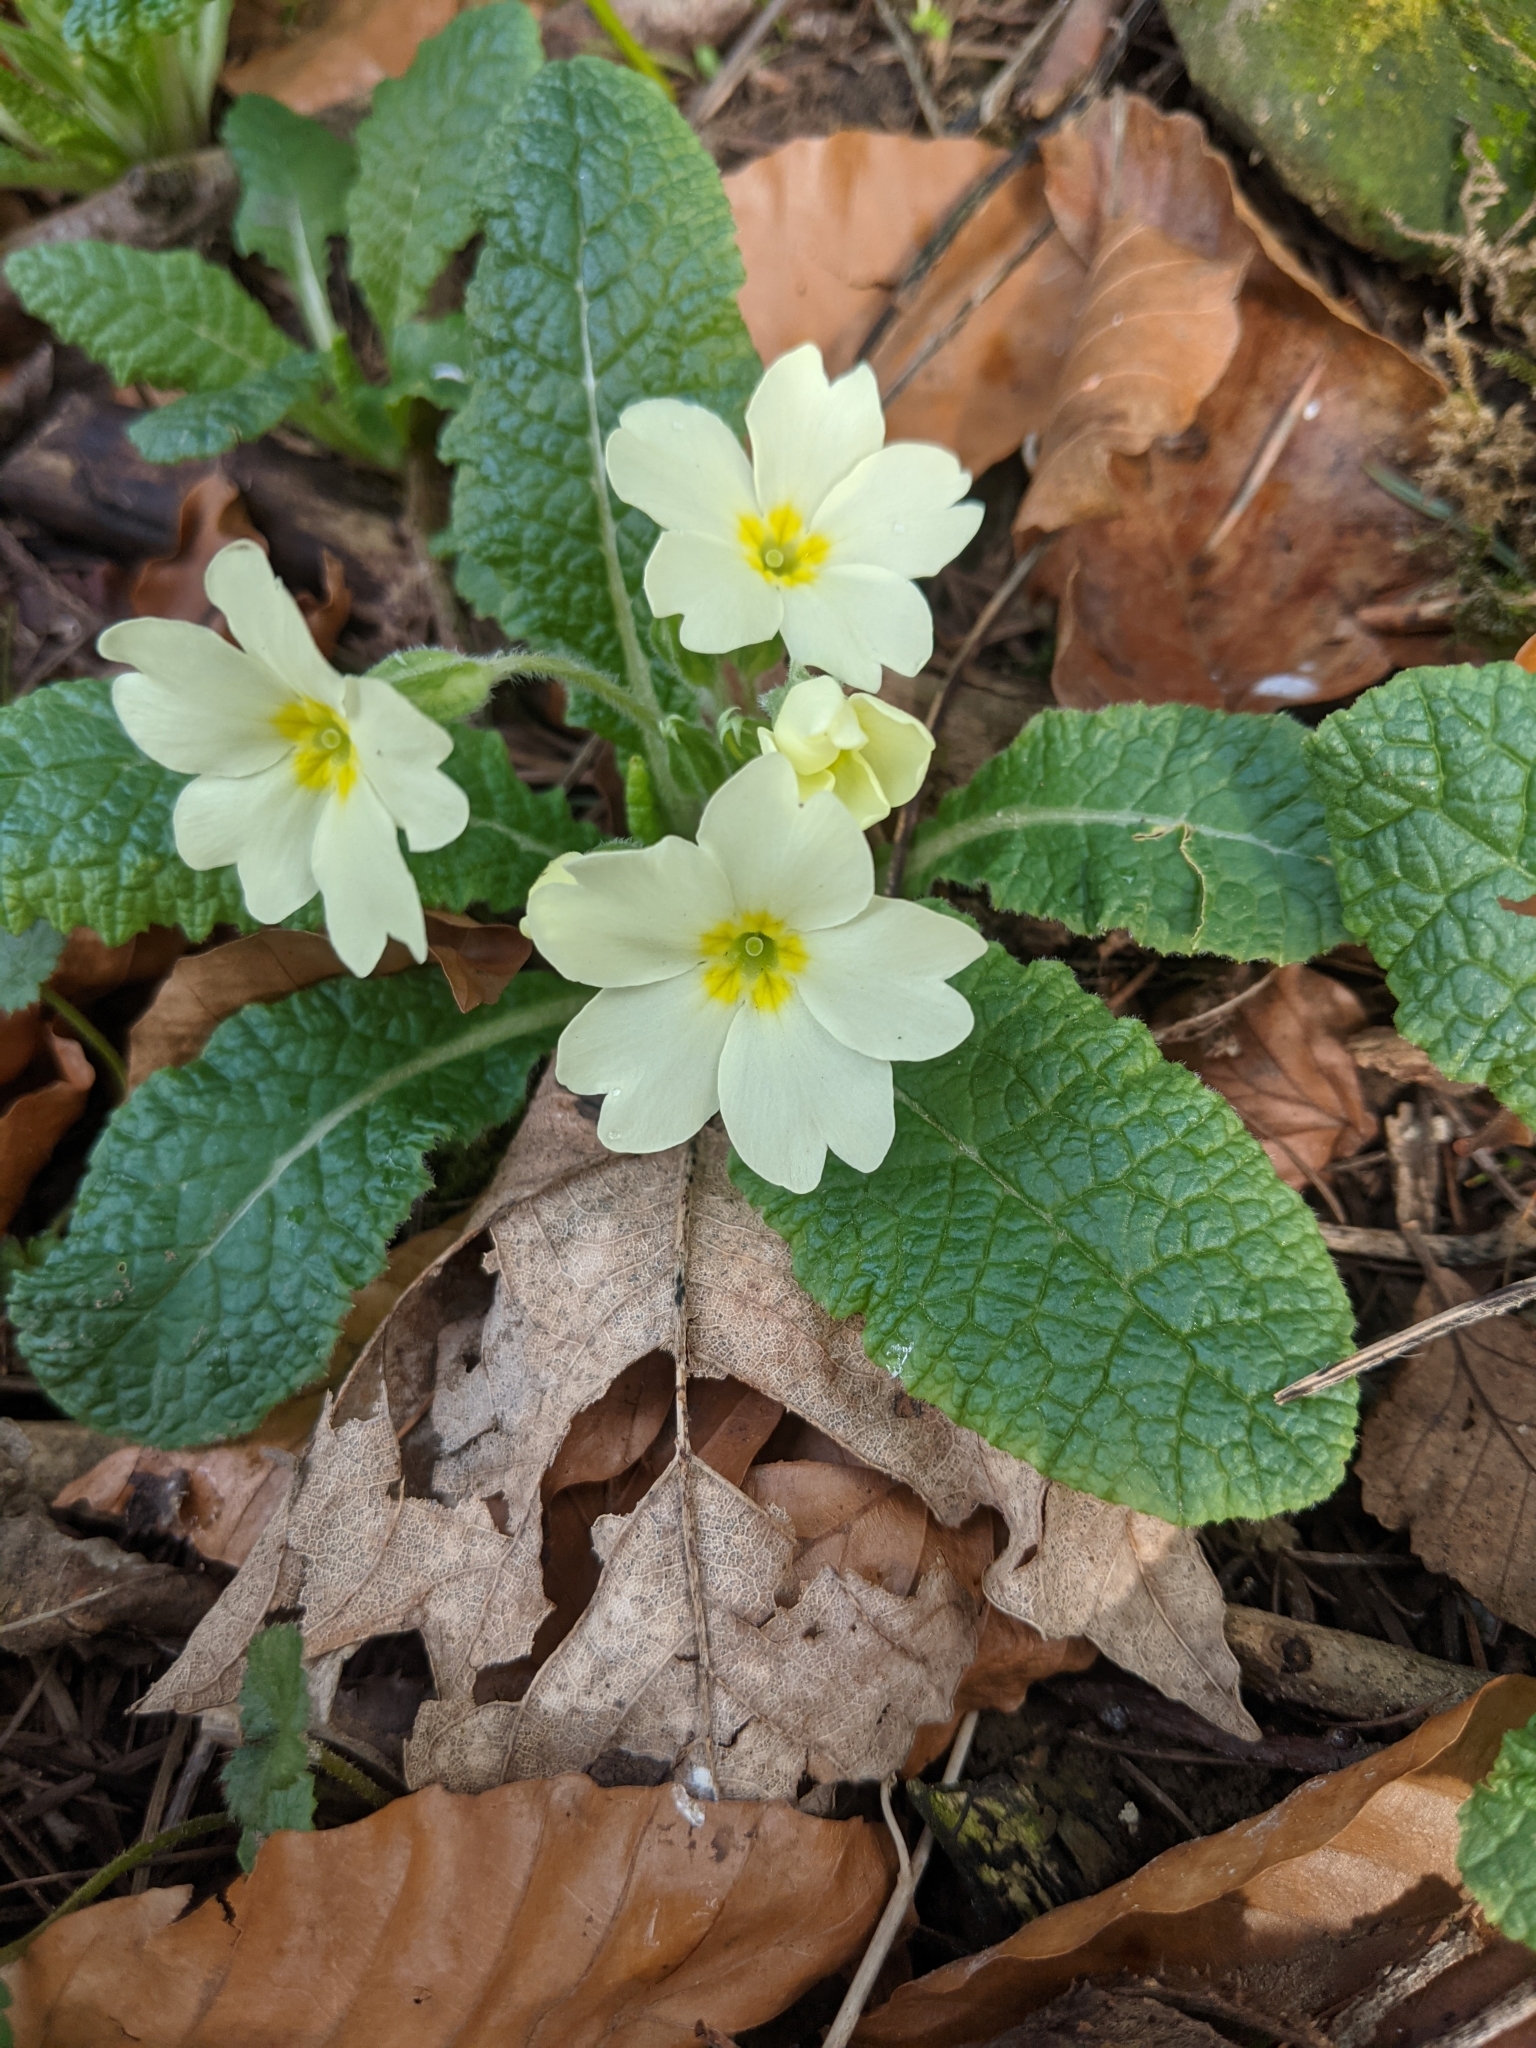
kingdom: Plantae
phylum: Tracheophyta
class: Magnoliopsida
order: Ericales
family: Primulaceae
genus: Primula
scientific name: Primula vulgaris
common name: Primrose
